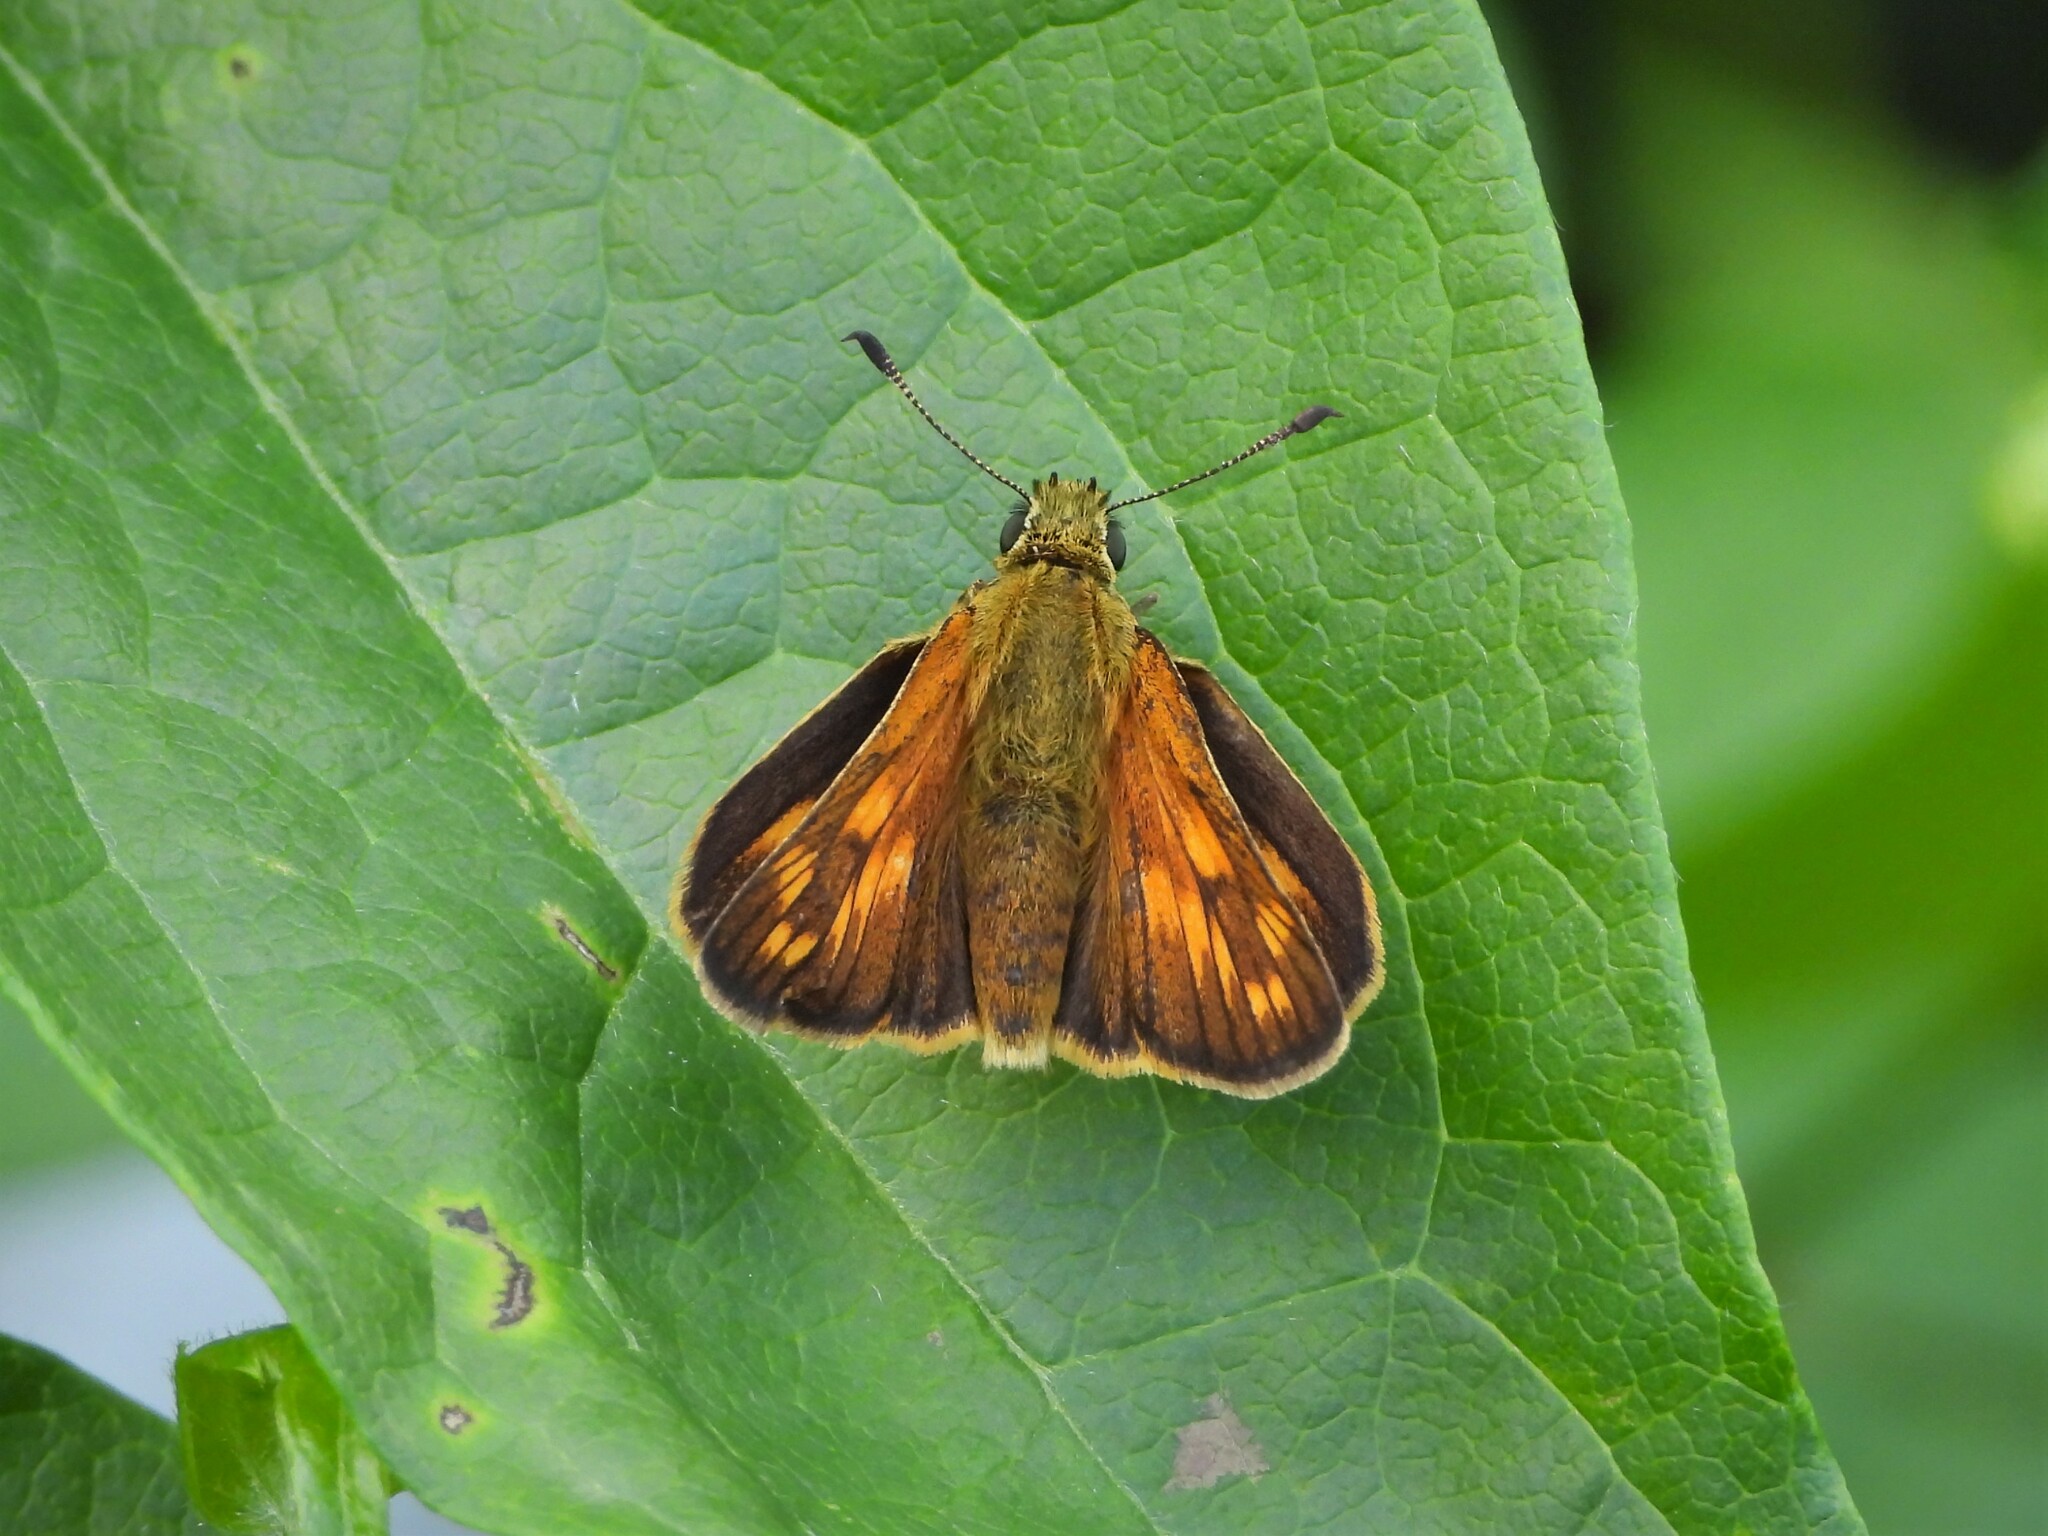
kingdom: Animalia
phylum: Arthropoda
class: Insecta
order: Lepidoptera
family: Hesperiidae
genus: Ochlodes
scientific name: Ochlodes venata
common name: Large skipper
